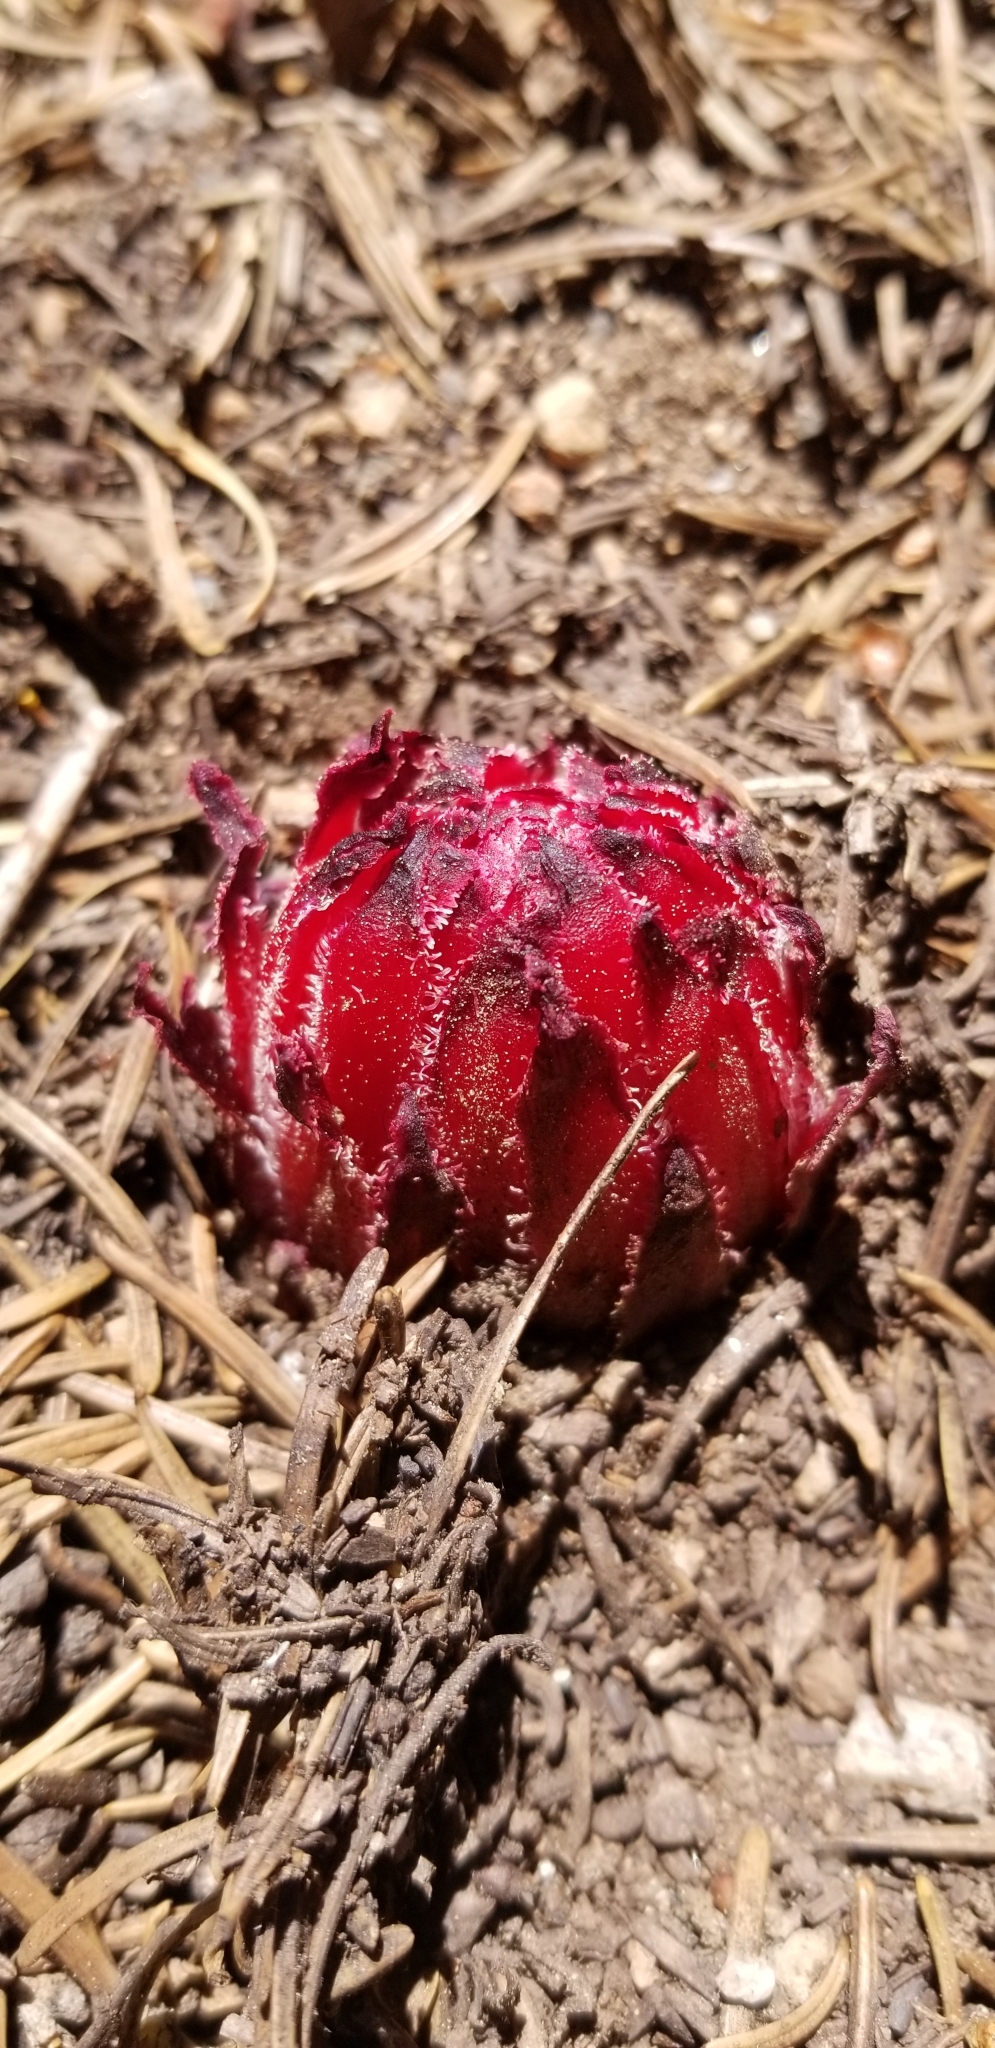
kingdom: Plantae
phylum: Tracheophyta
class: Magnoliopsida
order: Ericales
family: Ericaceae
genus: Sarcodes
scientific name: Sarcodes sanguinea
